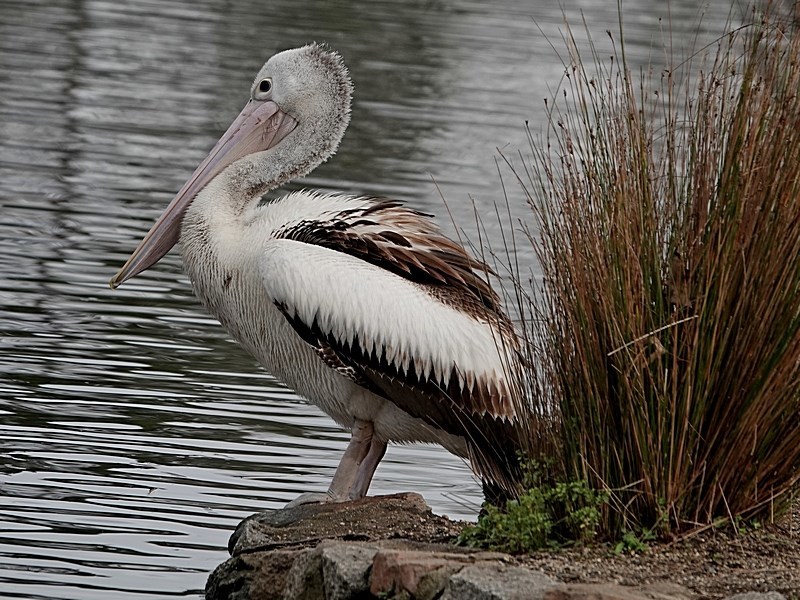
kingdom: Animalia
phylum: Chordata
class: Aves
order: Pelecaniformes
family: Pelecanidae
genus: Pelecanus
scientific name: Pelecanus conspicillatus
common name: Australian pelican
